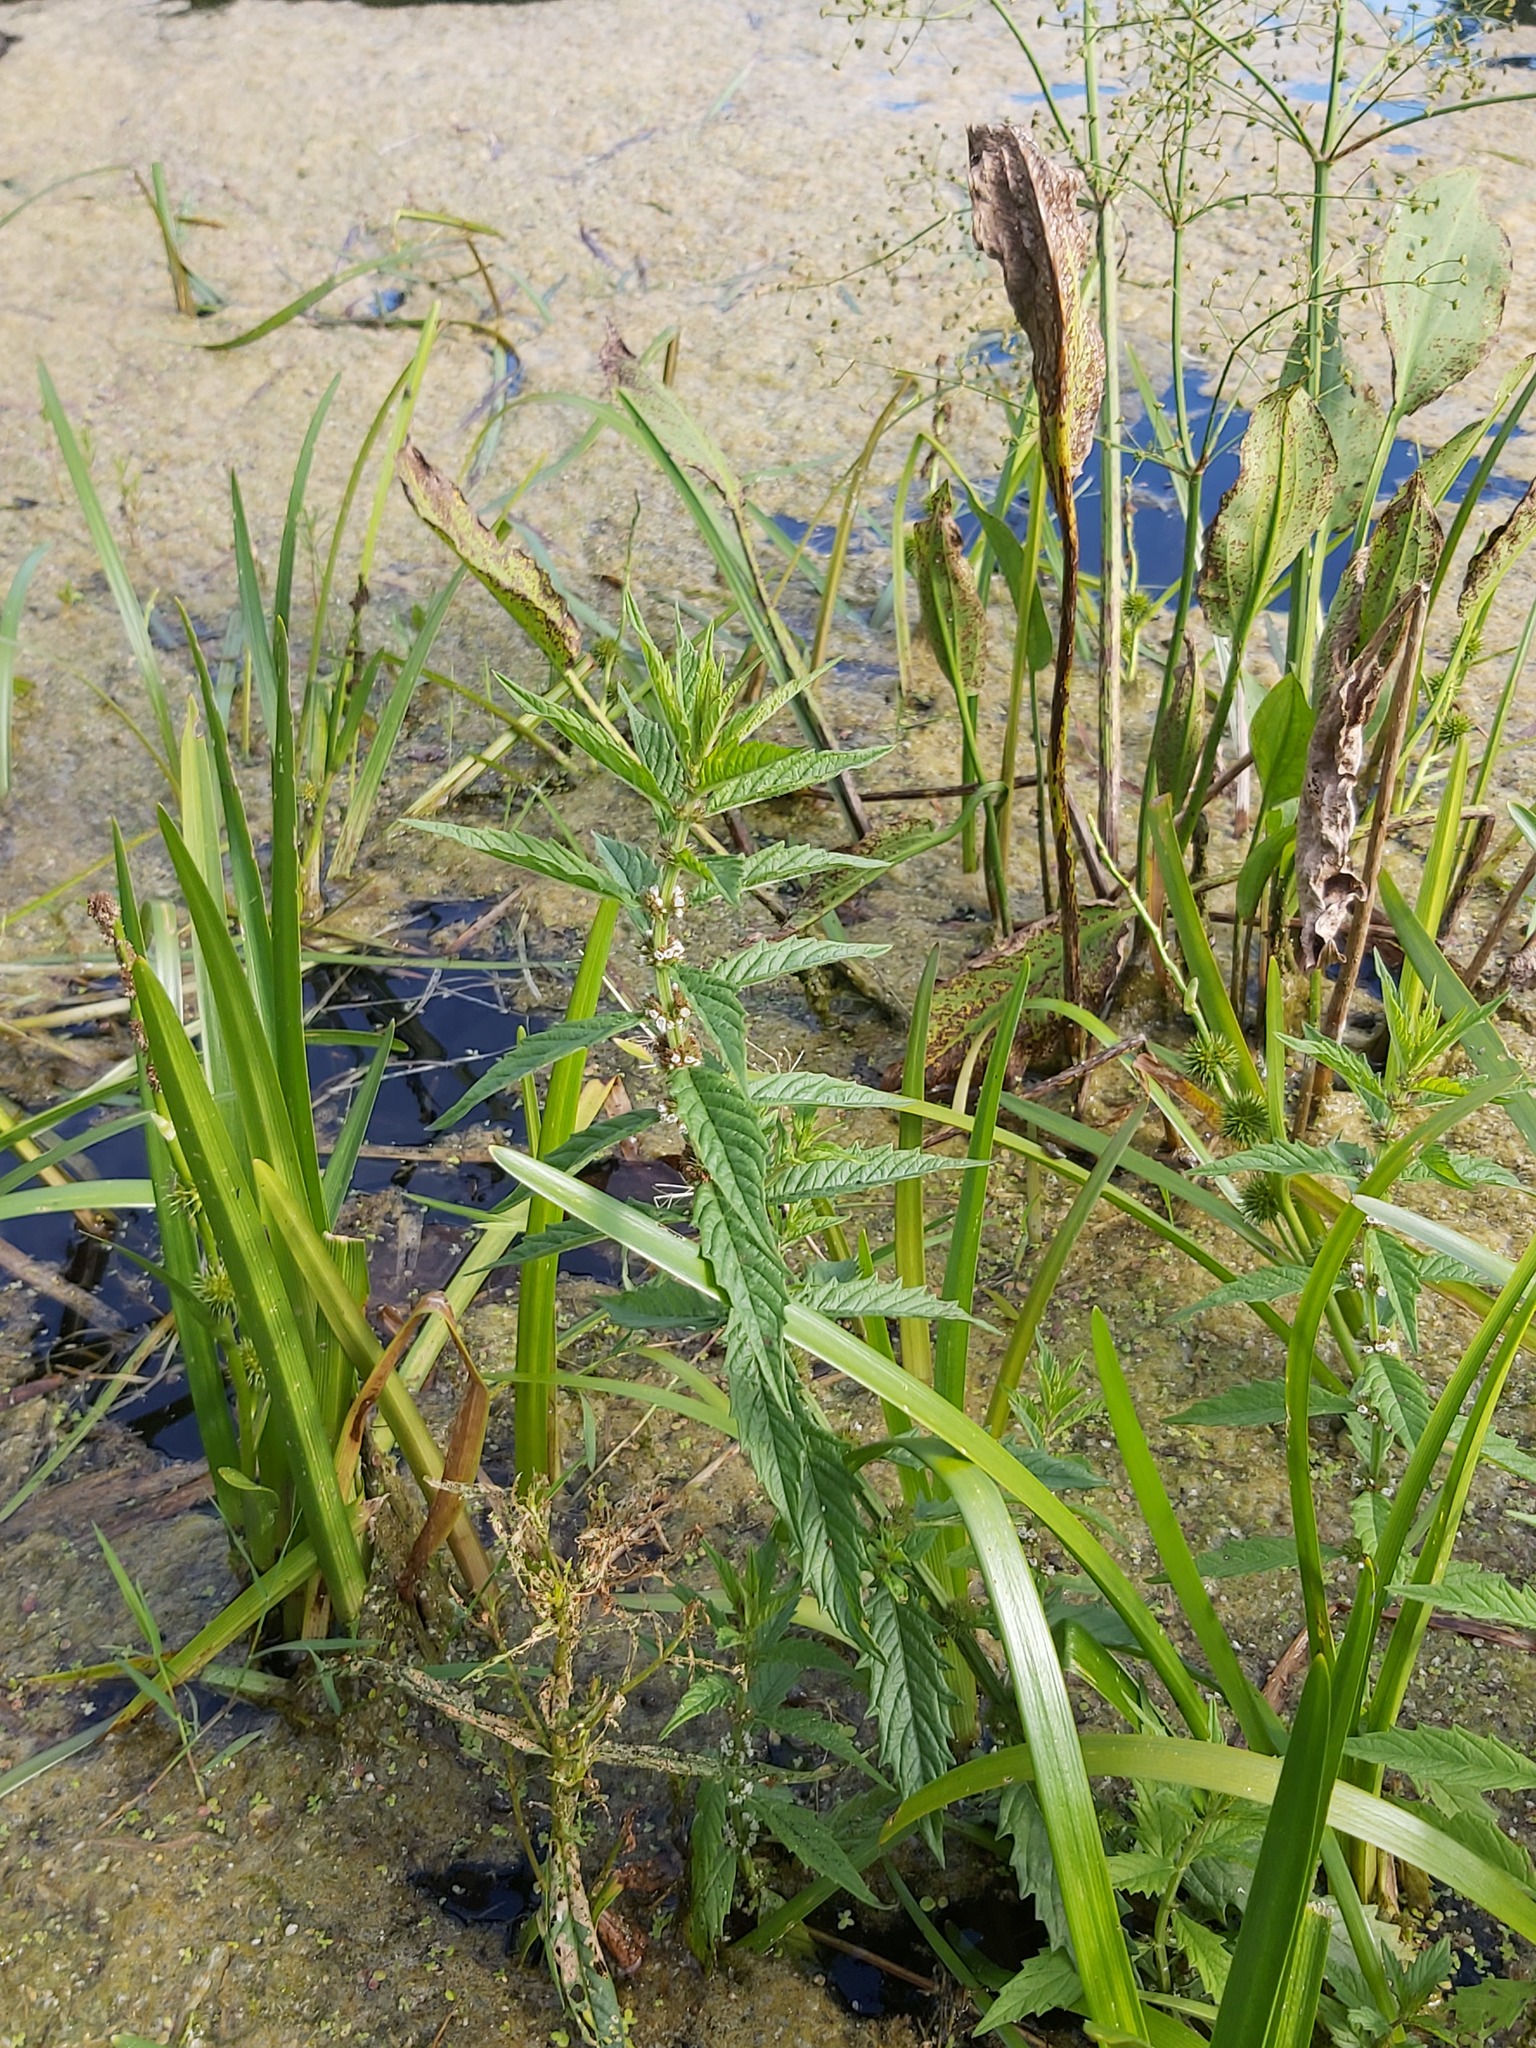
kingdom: Plantae
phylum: Tracheophyta
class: Magnoliopsida
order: Lamiales
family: Lamiaceae
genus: Lycopus
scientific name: Lycopus europaeus
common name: European bugleweed
